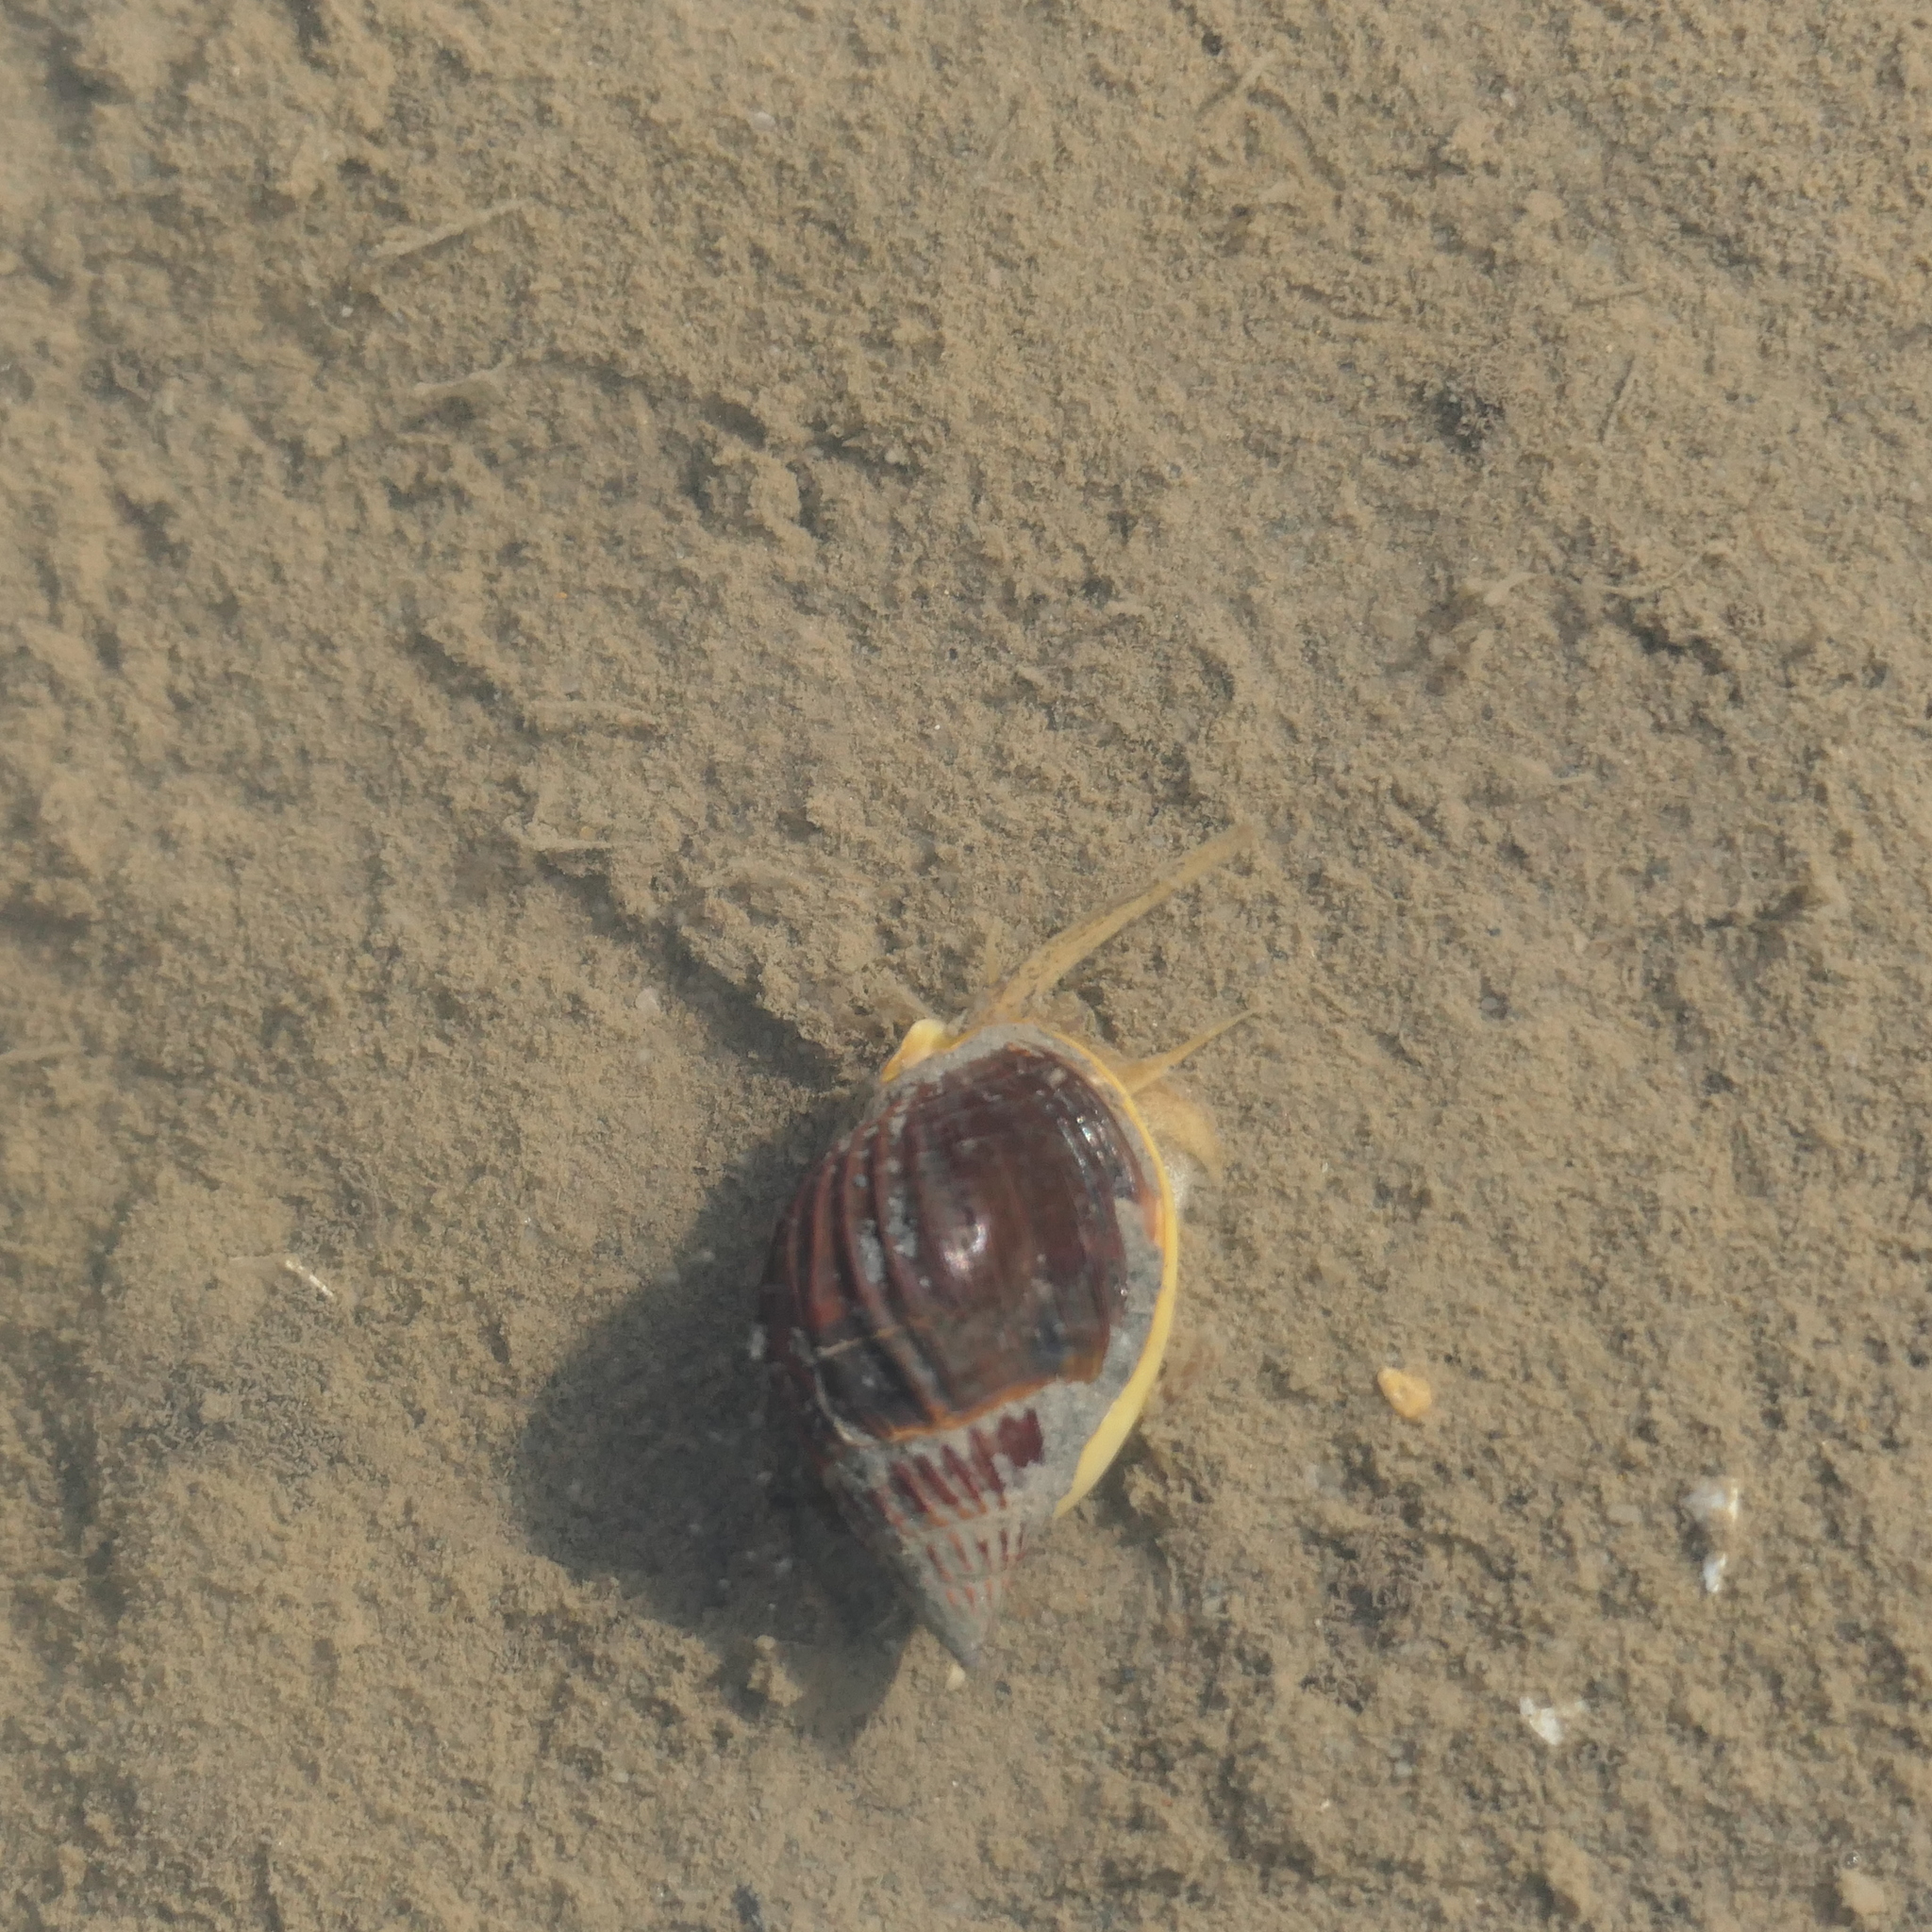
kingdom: Animalia
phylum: Mollusca
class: Gastropoda
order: Neogastropoda
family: Nassariidae
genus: Nassarius
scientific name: Nassarius pullus
